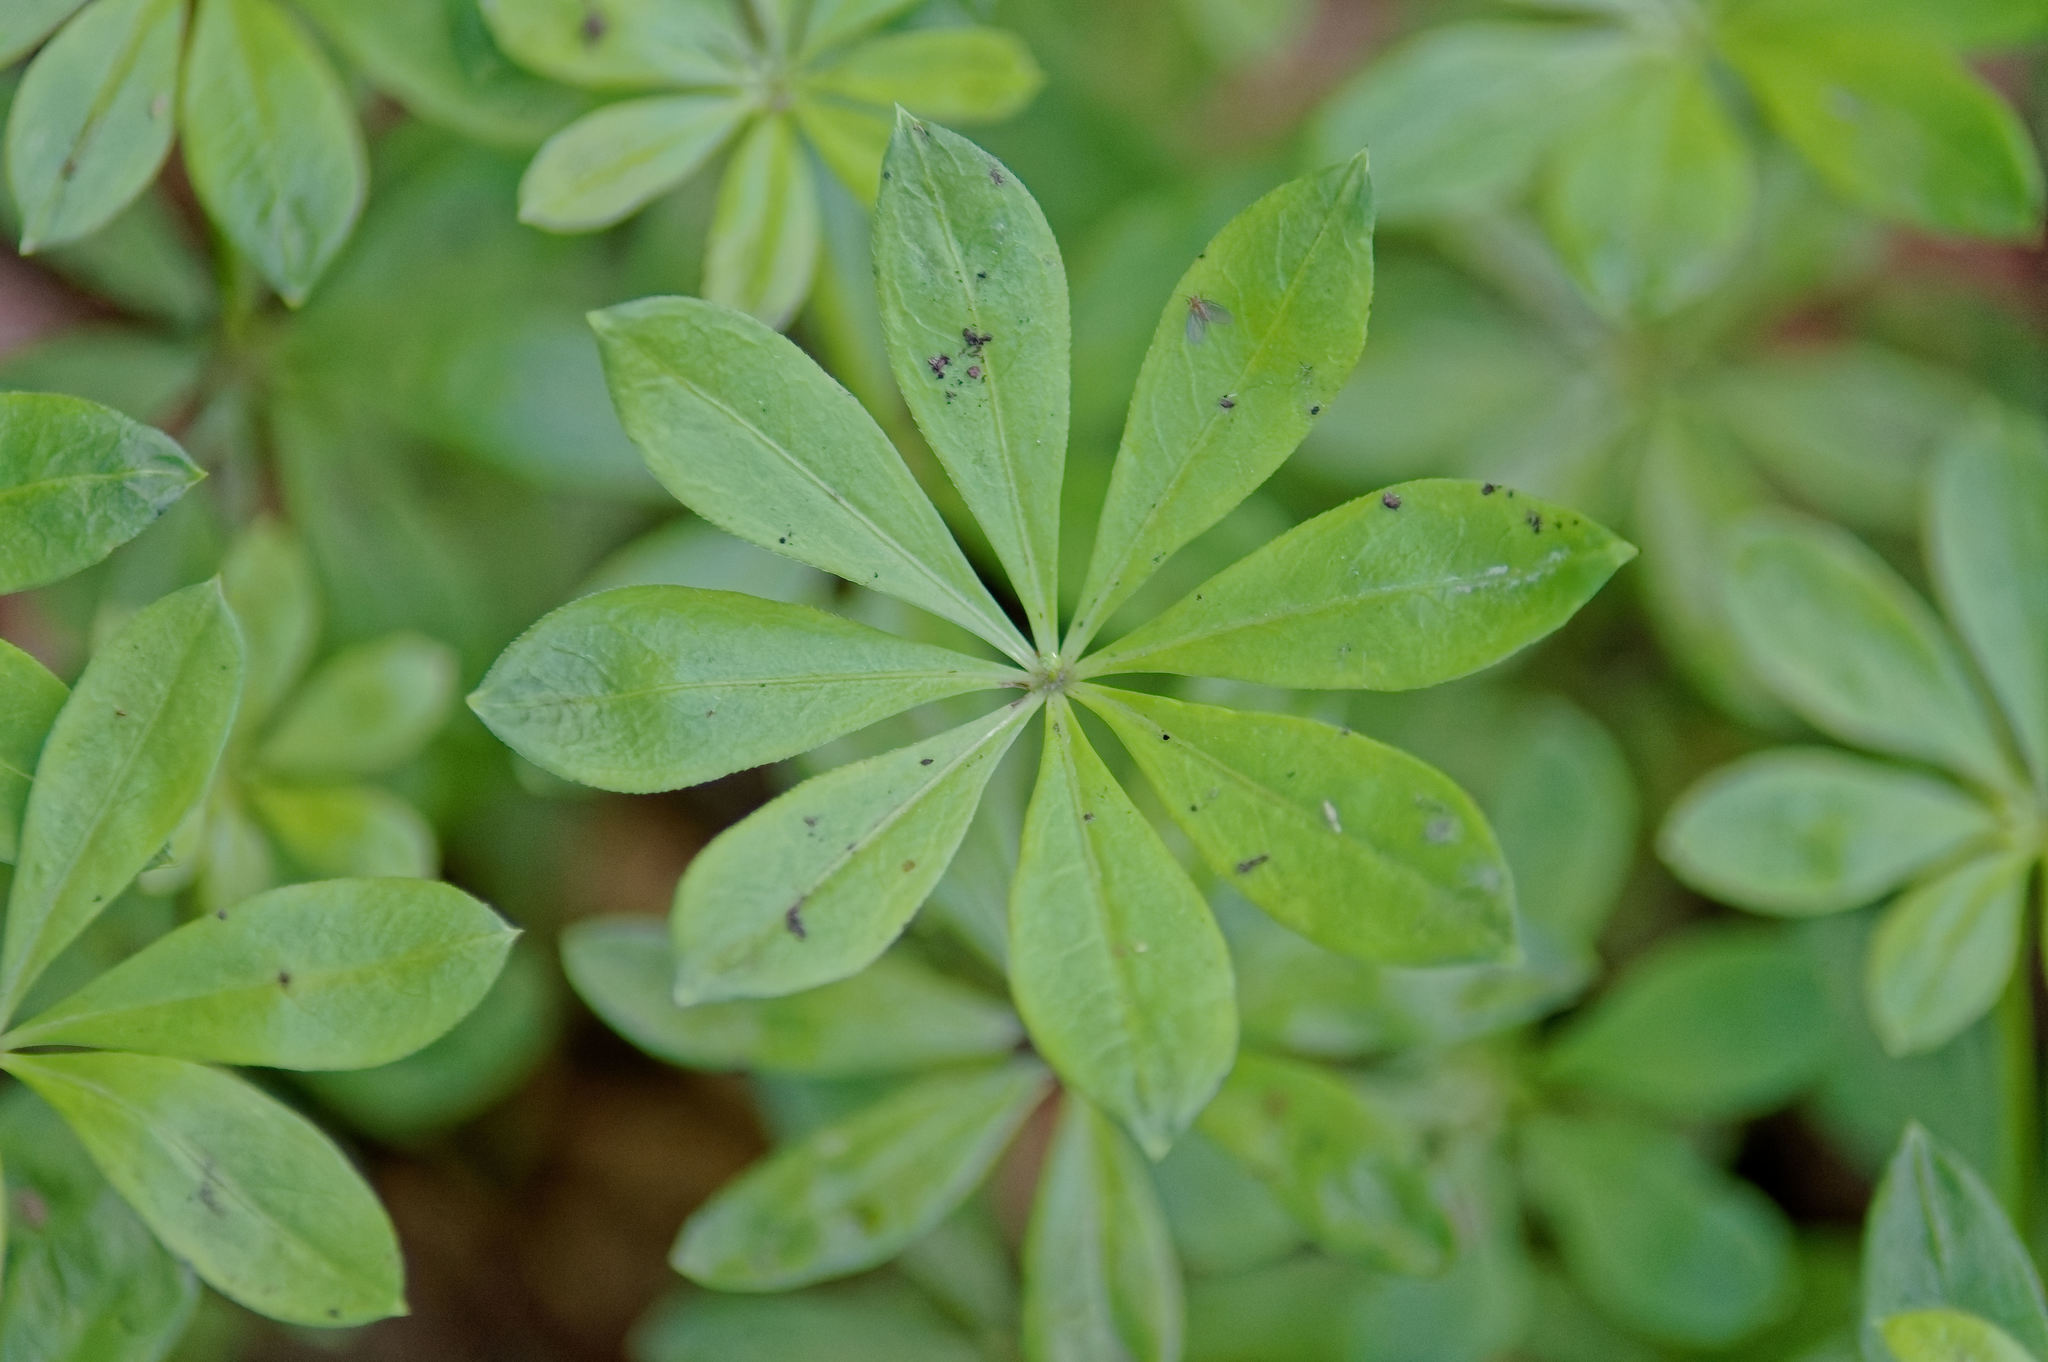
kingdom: Plantae
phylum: Tracheophyta
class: Magnoliopsida
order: Gentianales
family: Rubiaceae
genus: Galium
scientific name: Galium odoratum
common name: Sweet woodruff
